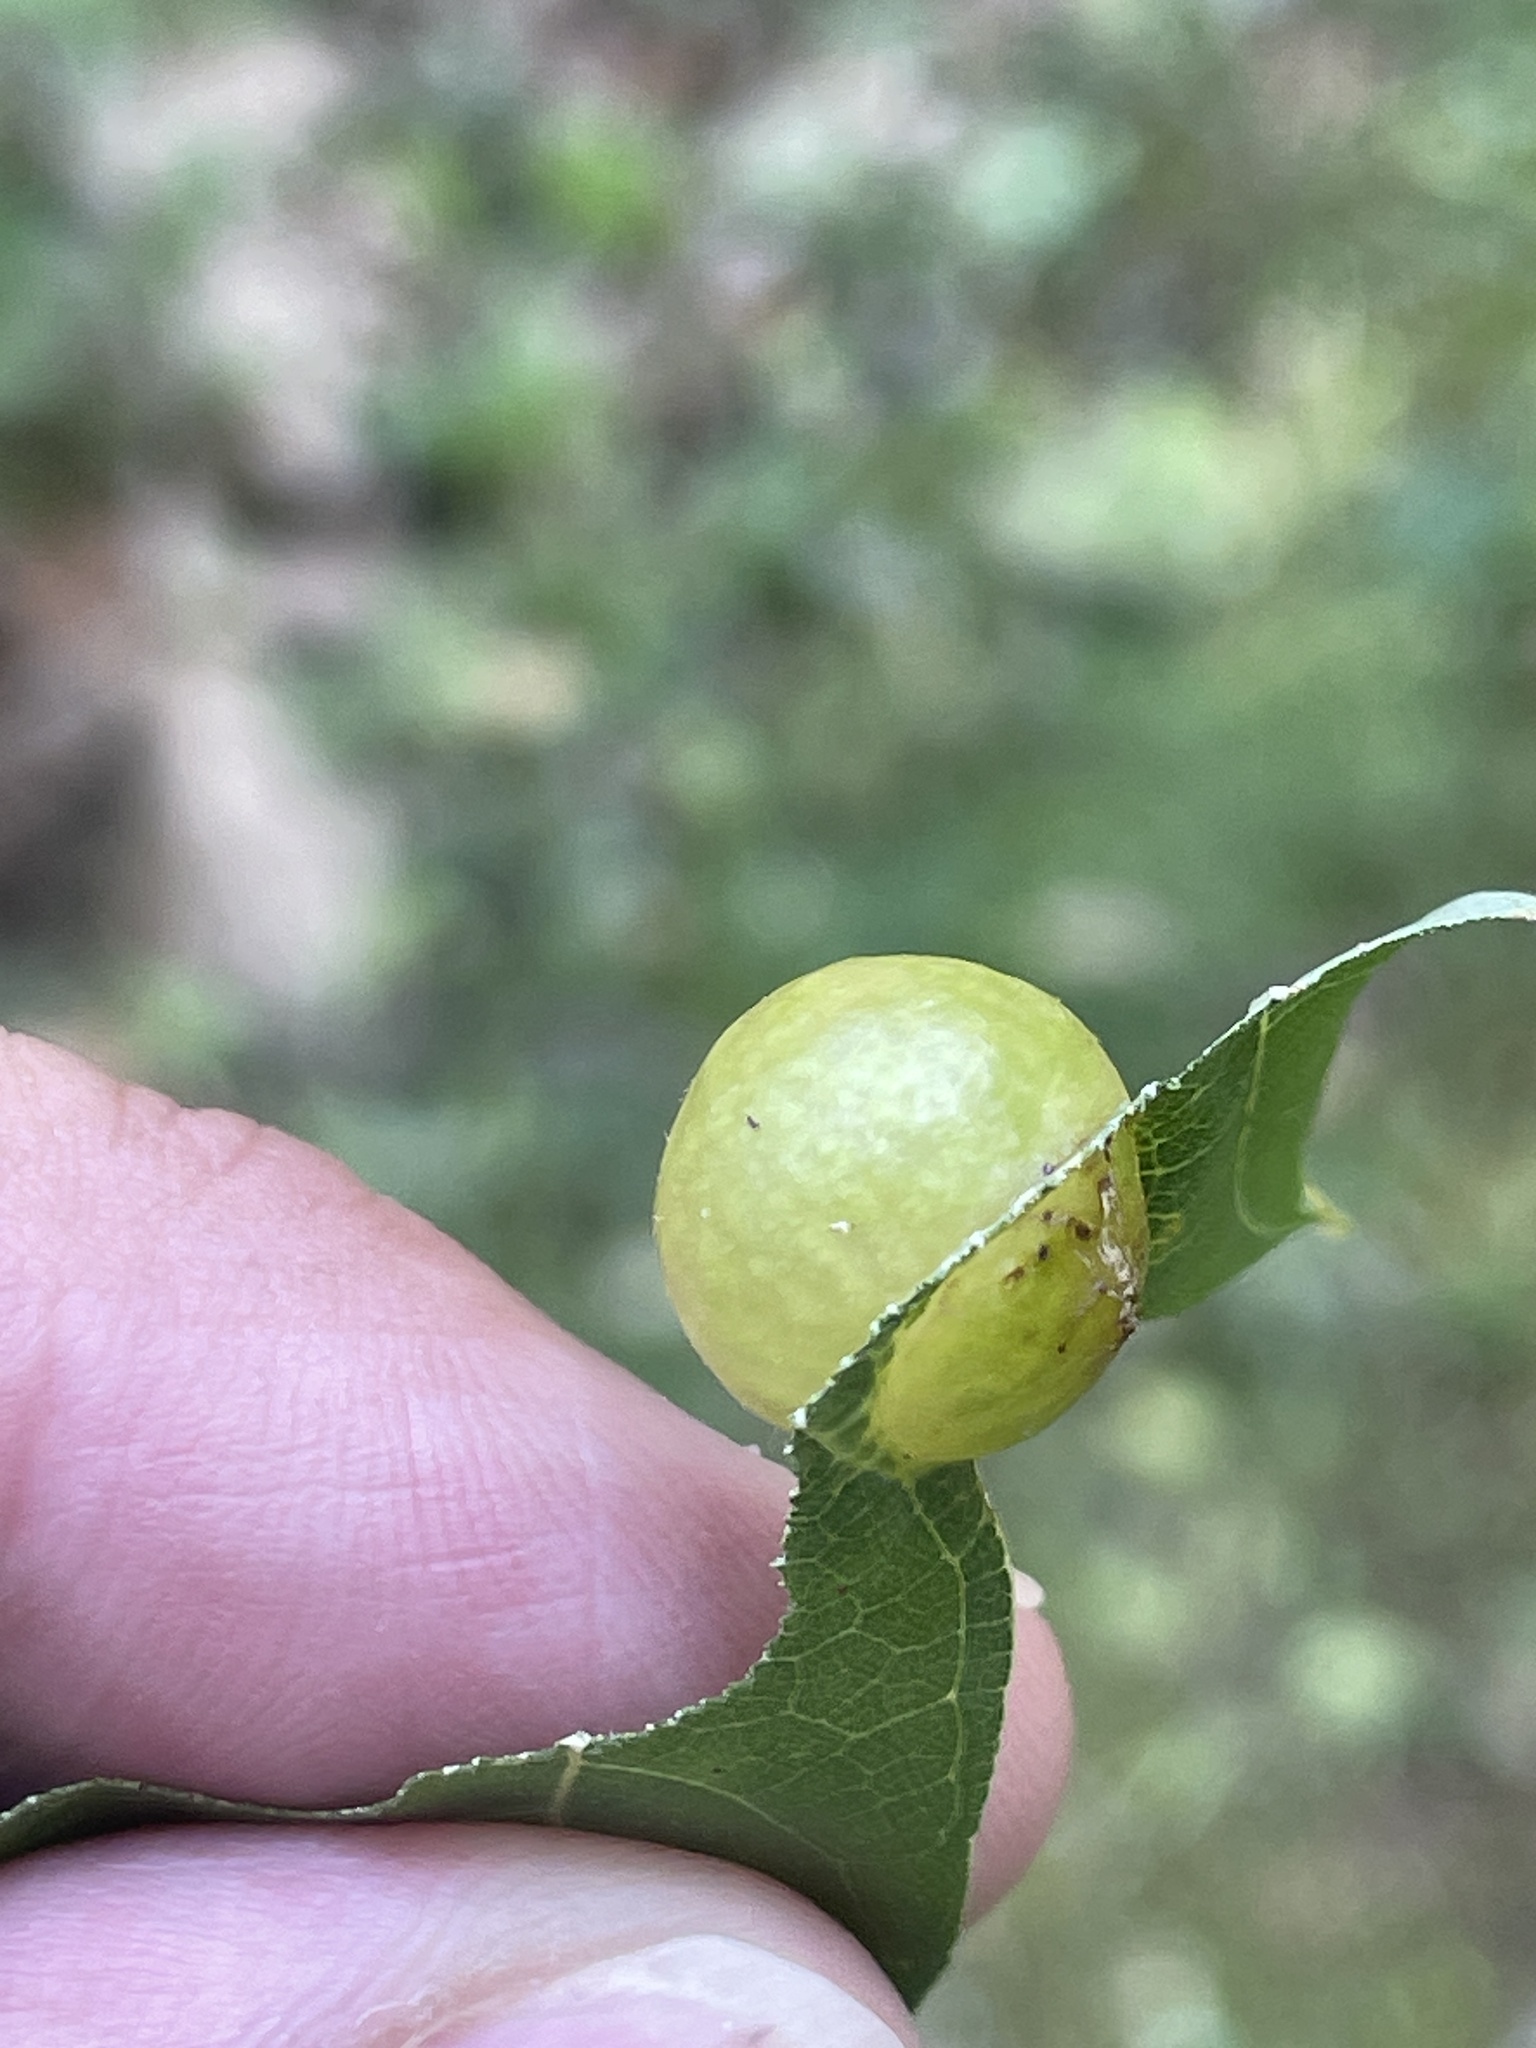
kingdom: Animalia
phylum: Arthropoda
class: Insecta
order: Hymenoptera
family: Cynipidae
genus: Amphibolips
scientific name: Amphibolips
